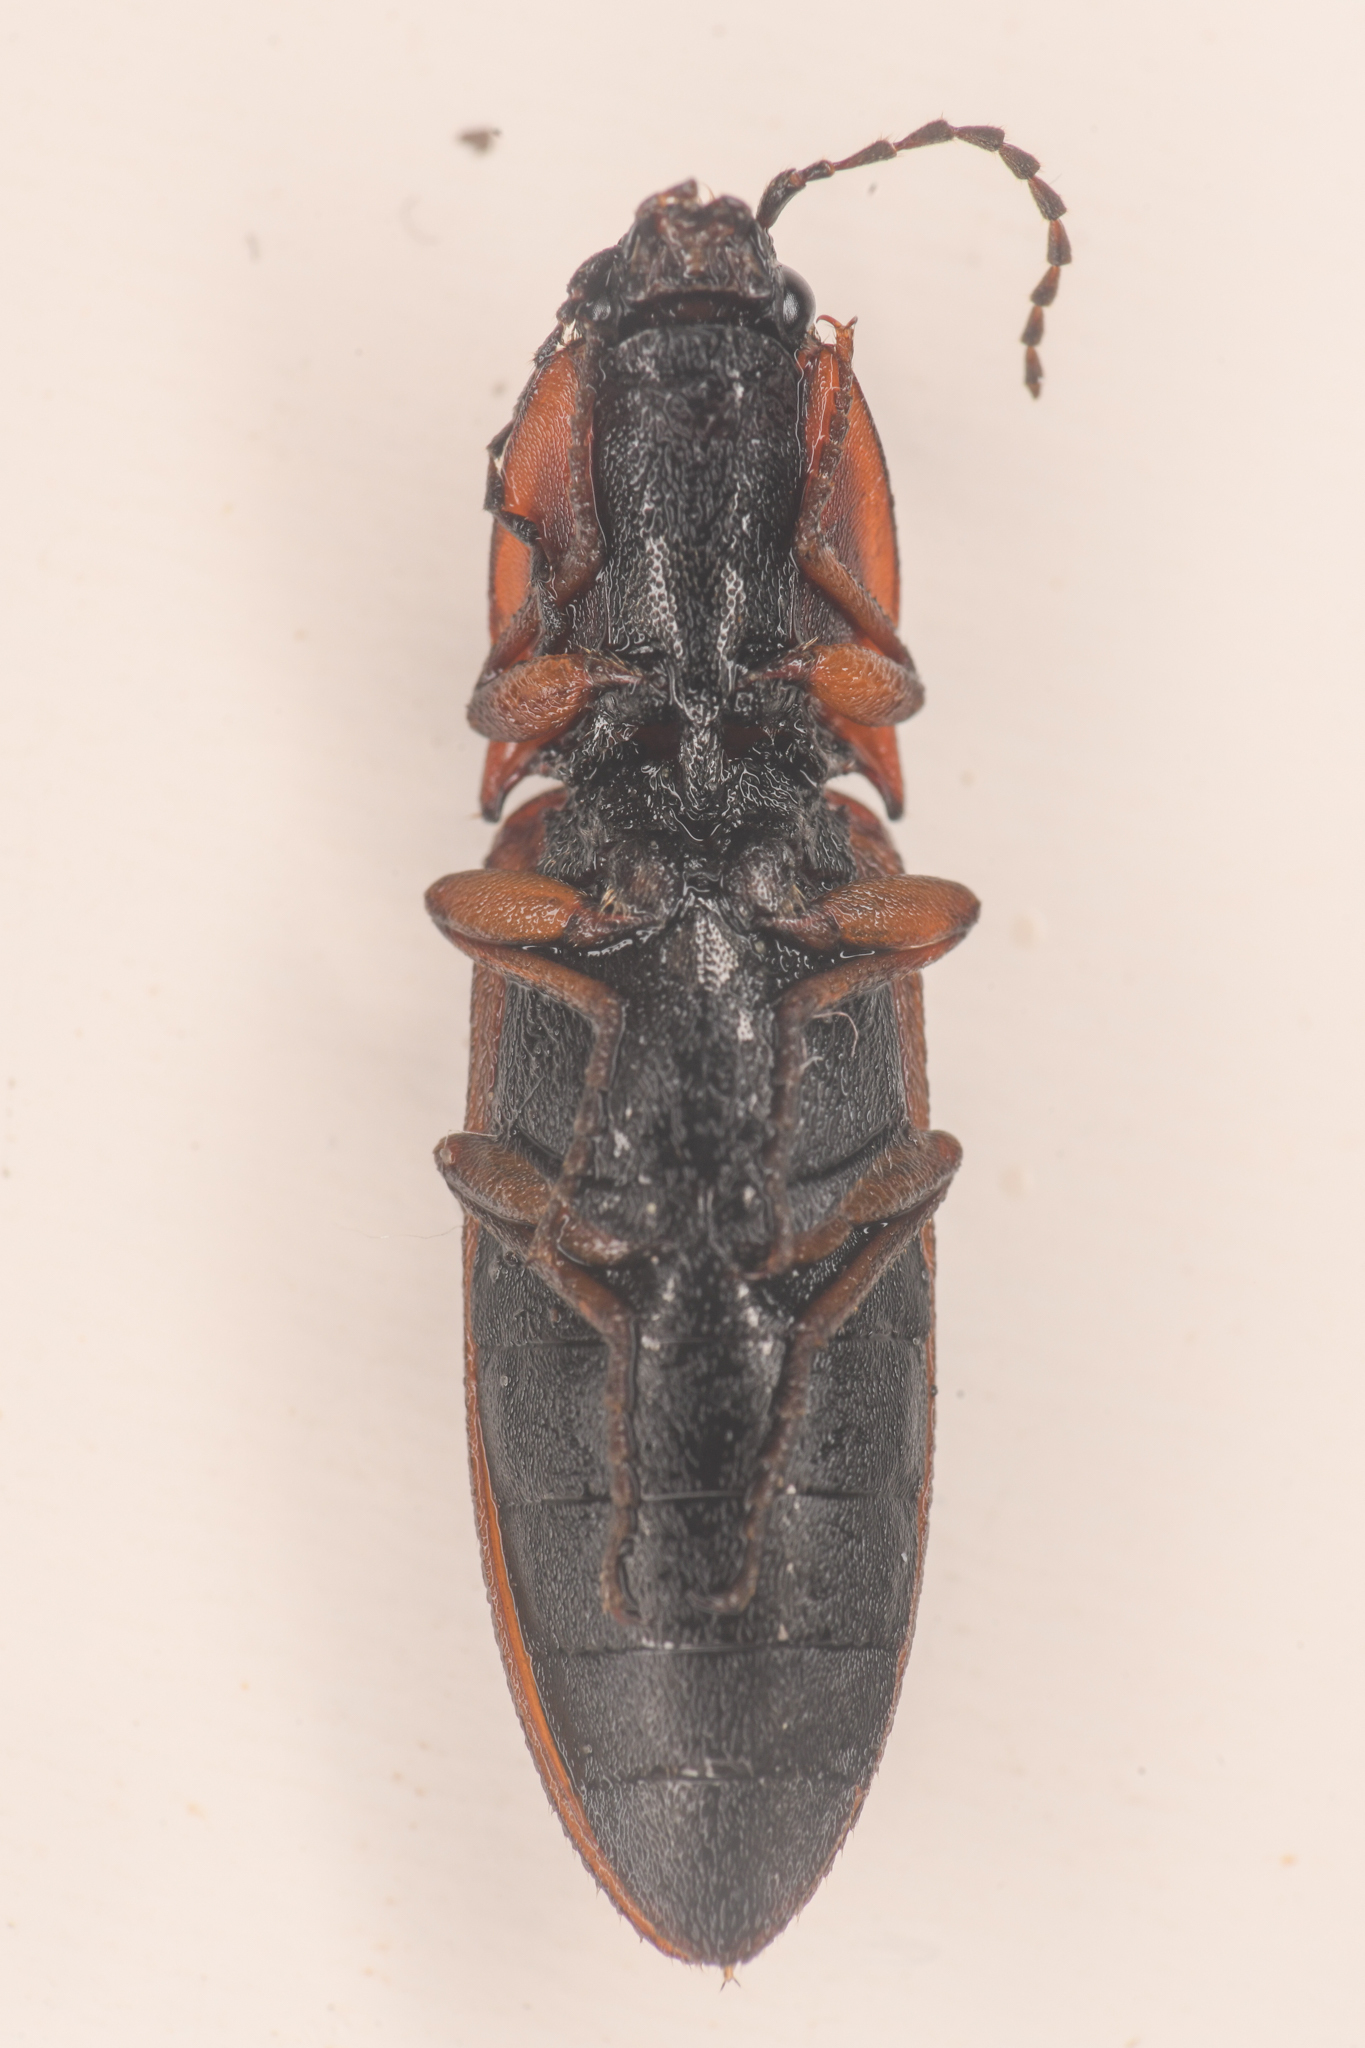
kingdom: Animalia
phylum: Arthropoda
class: Insecta
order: Coleoptera
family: Elateridae
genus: Acteniceromorphus
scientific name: Acteniceromorphus volitans
